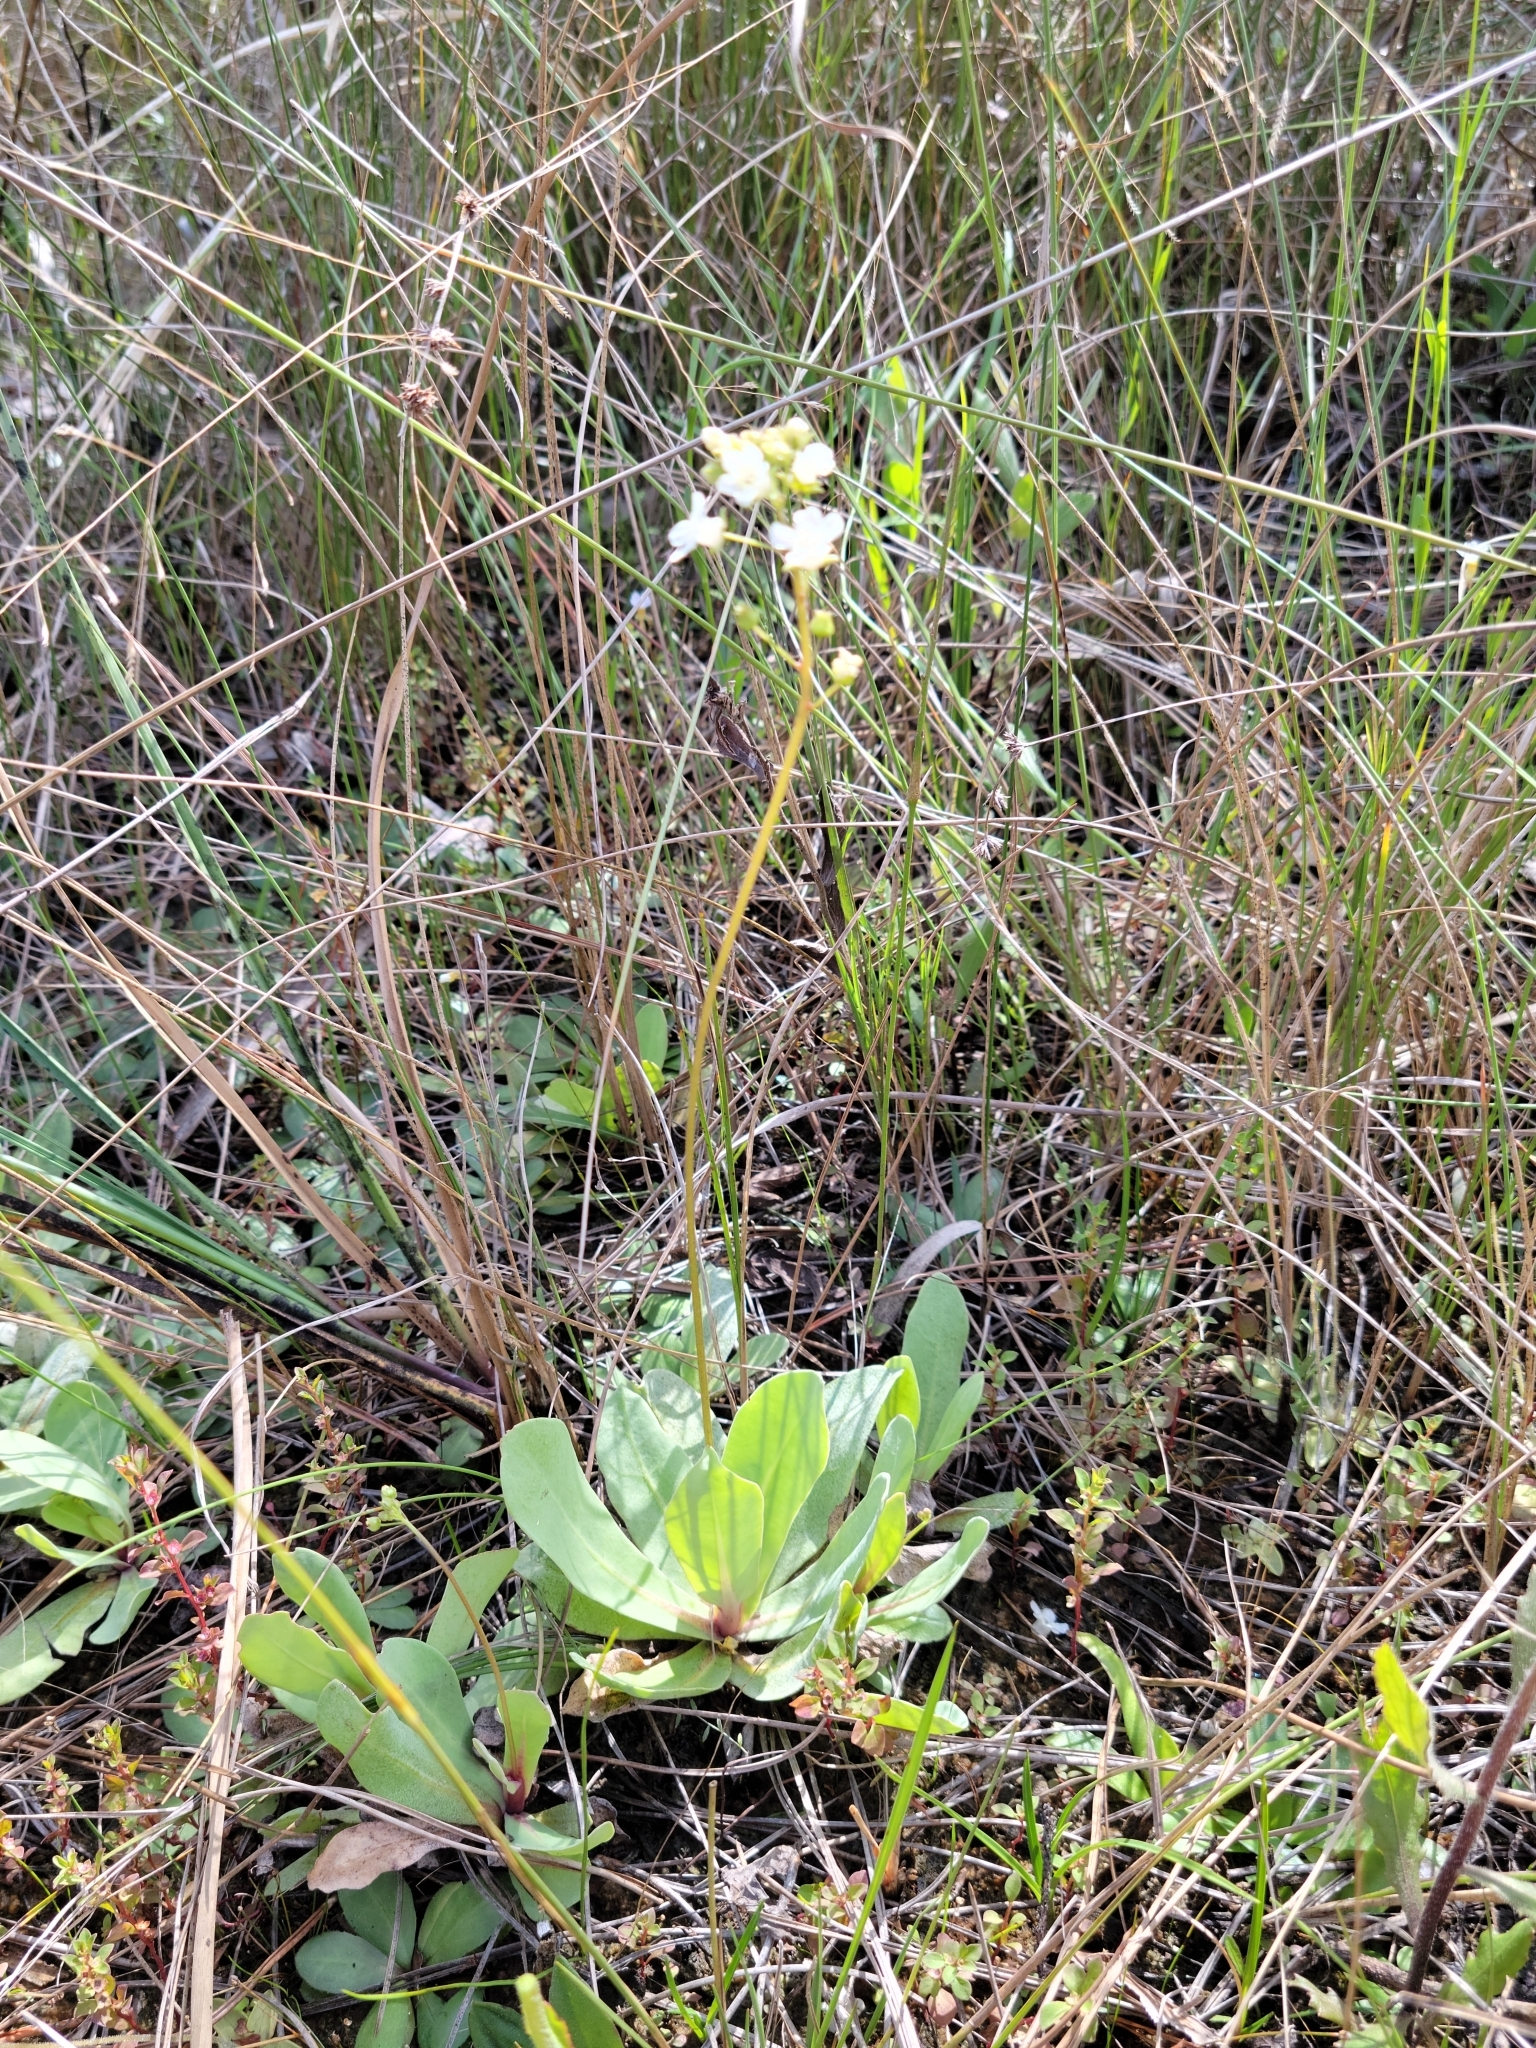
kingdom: Plantae
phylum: Tracheophyta
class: Magnoliopsida
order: Ericales
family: Primulaceae
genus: Samolus
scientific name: Samolus ebracteatus
